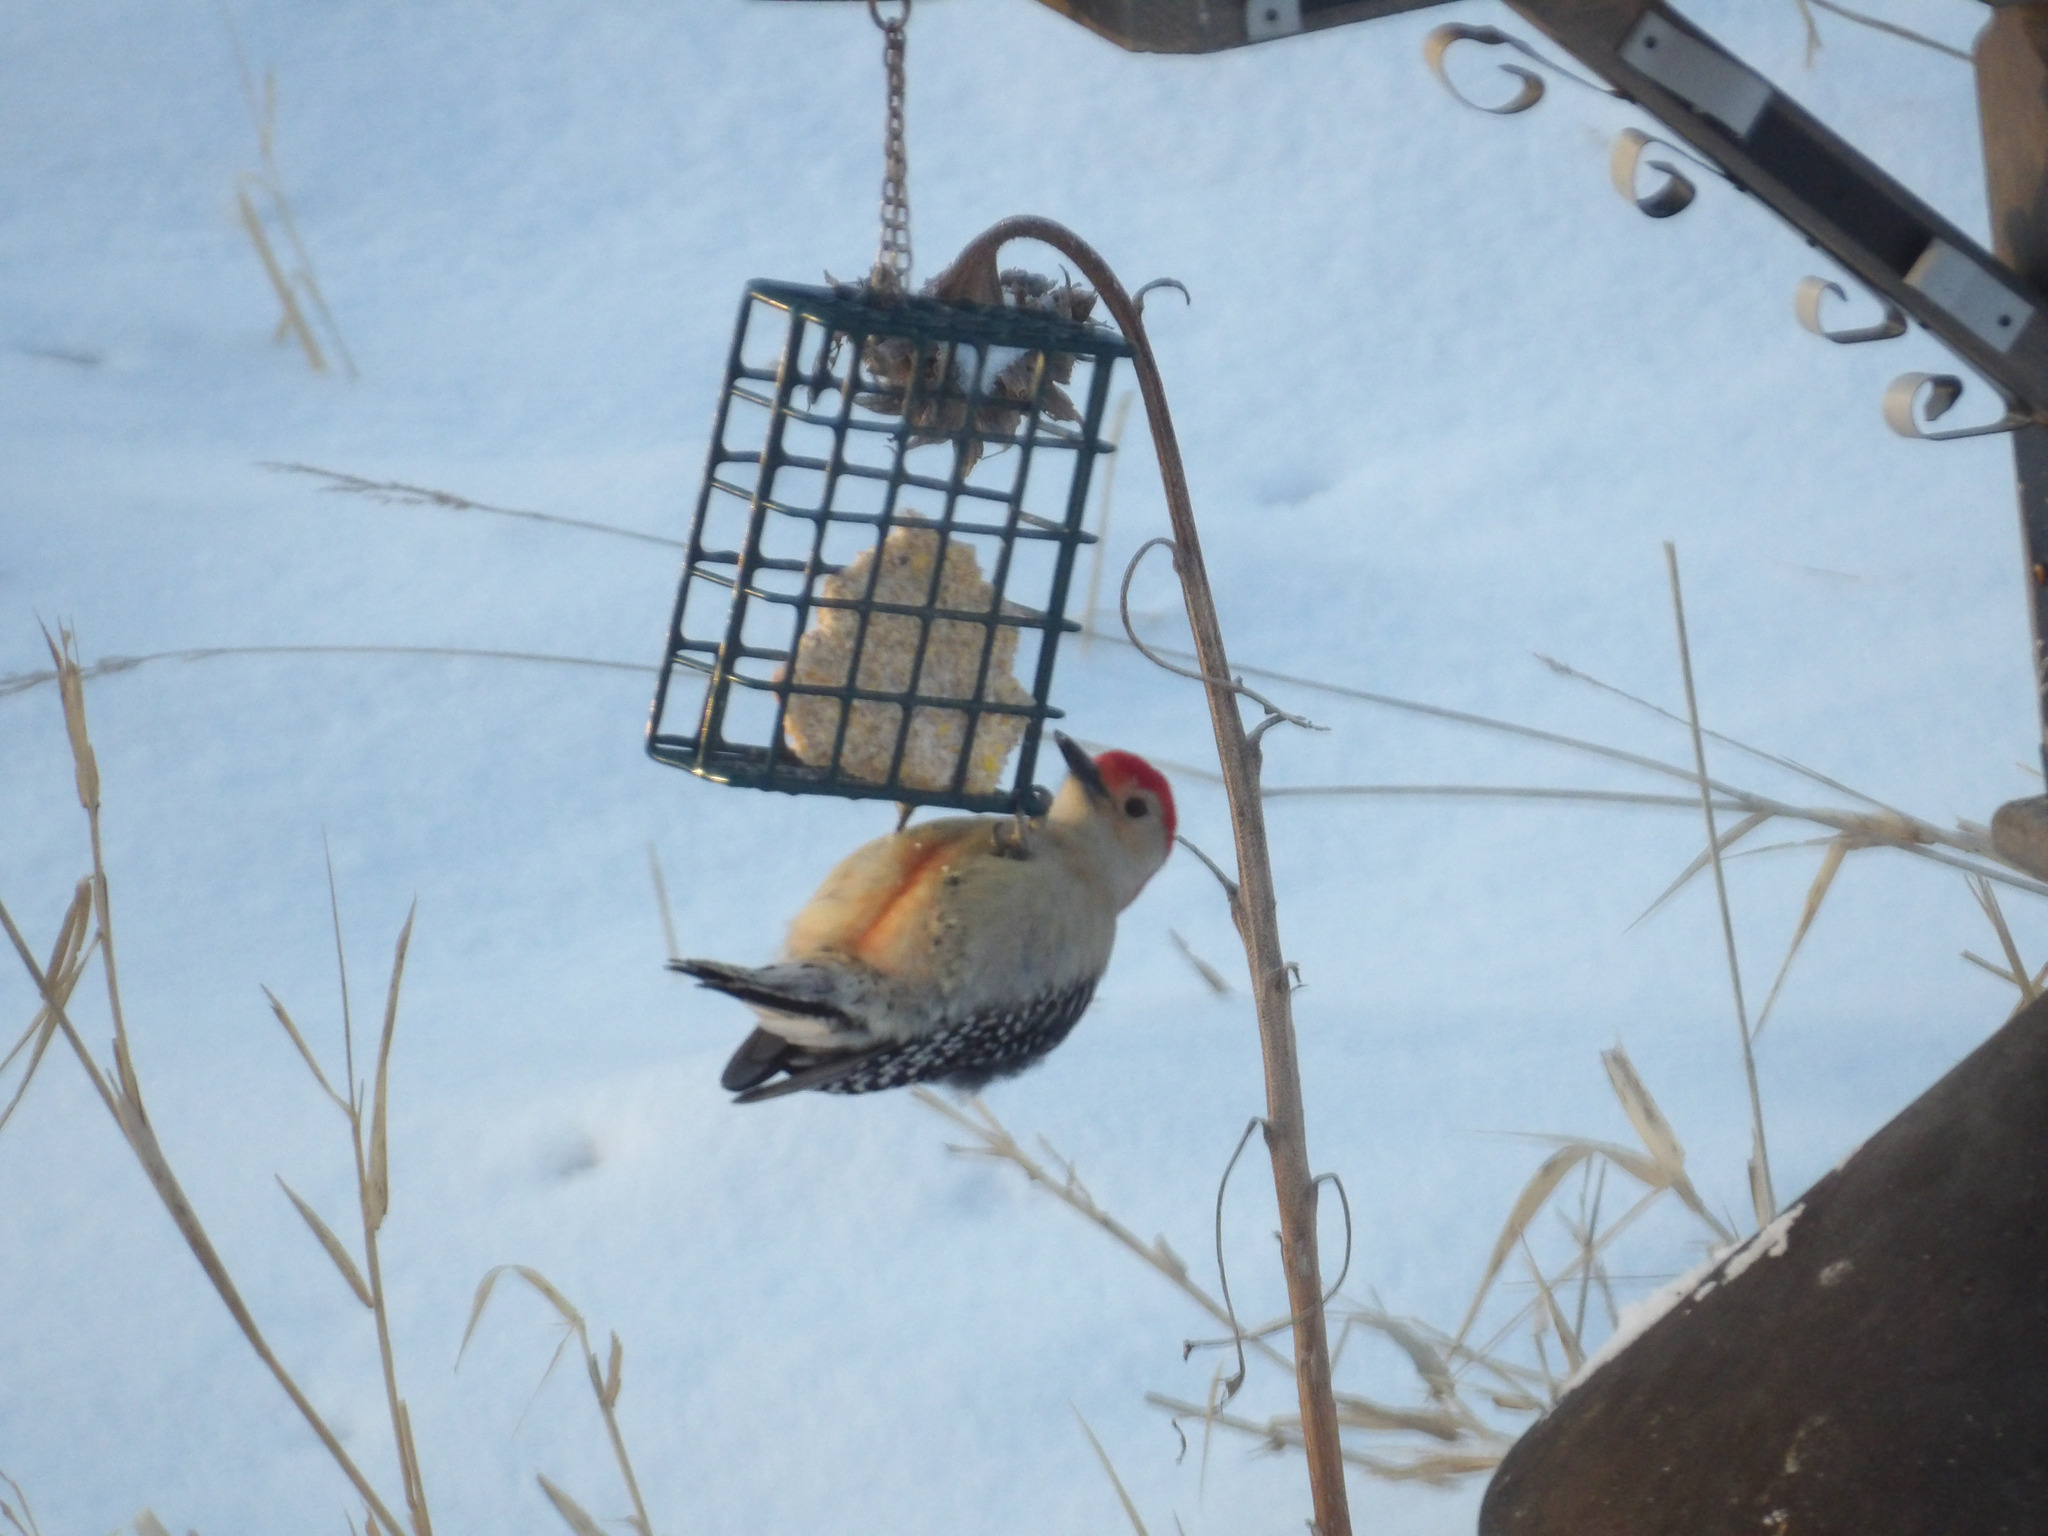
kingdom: Animalia
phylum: Chordata
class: Aves
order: Piciformes
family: Picidae
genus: Melanerpes
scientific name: Melanerpes carolinus
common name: Red-bellied woodpecker
